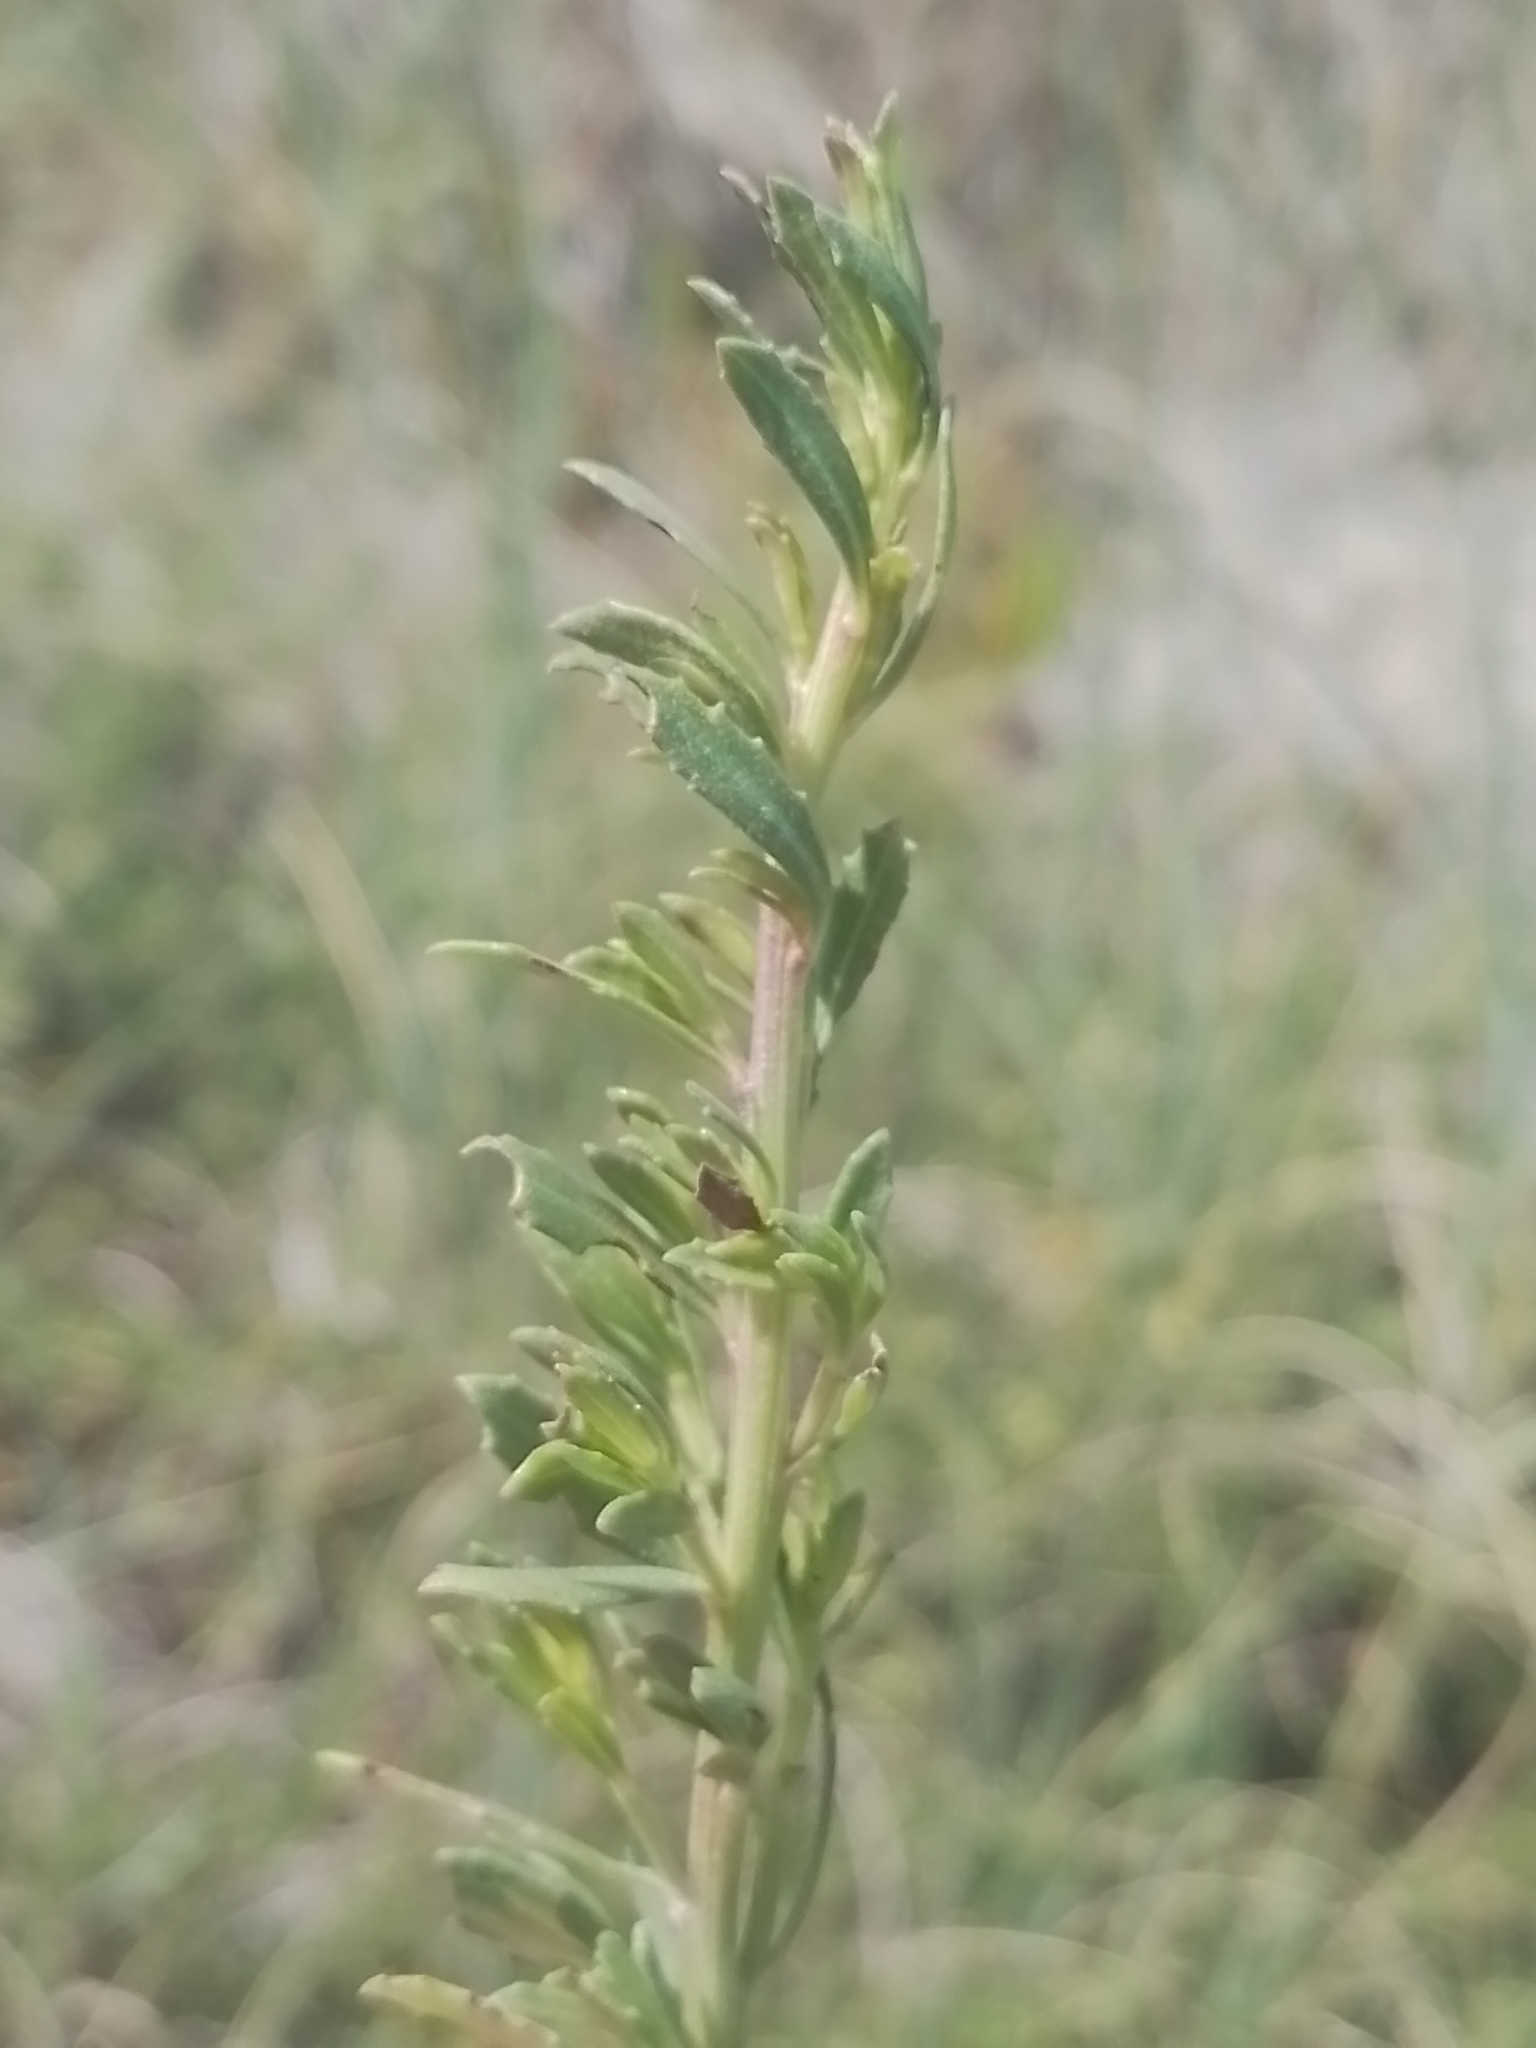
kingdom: Plantae
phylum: Tracheophyta
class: Magnoliopsida
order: Asterales
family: Asteraceae
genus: Baccharis
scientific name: Baccharis linearifolia
